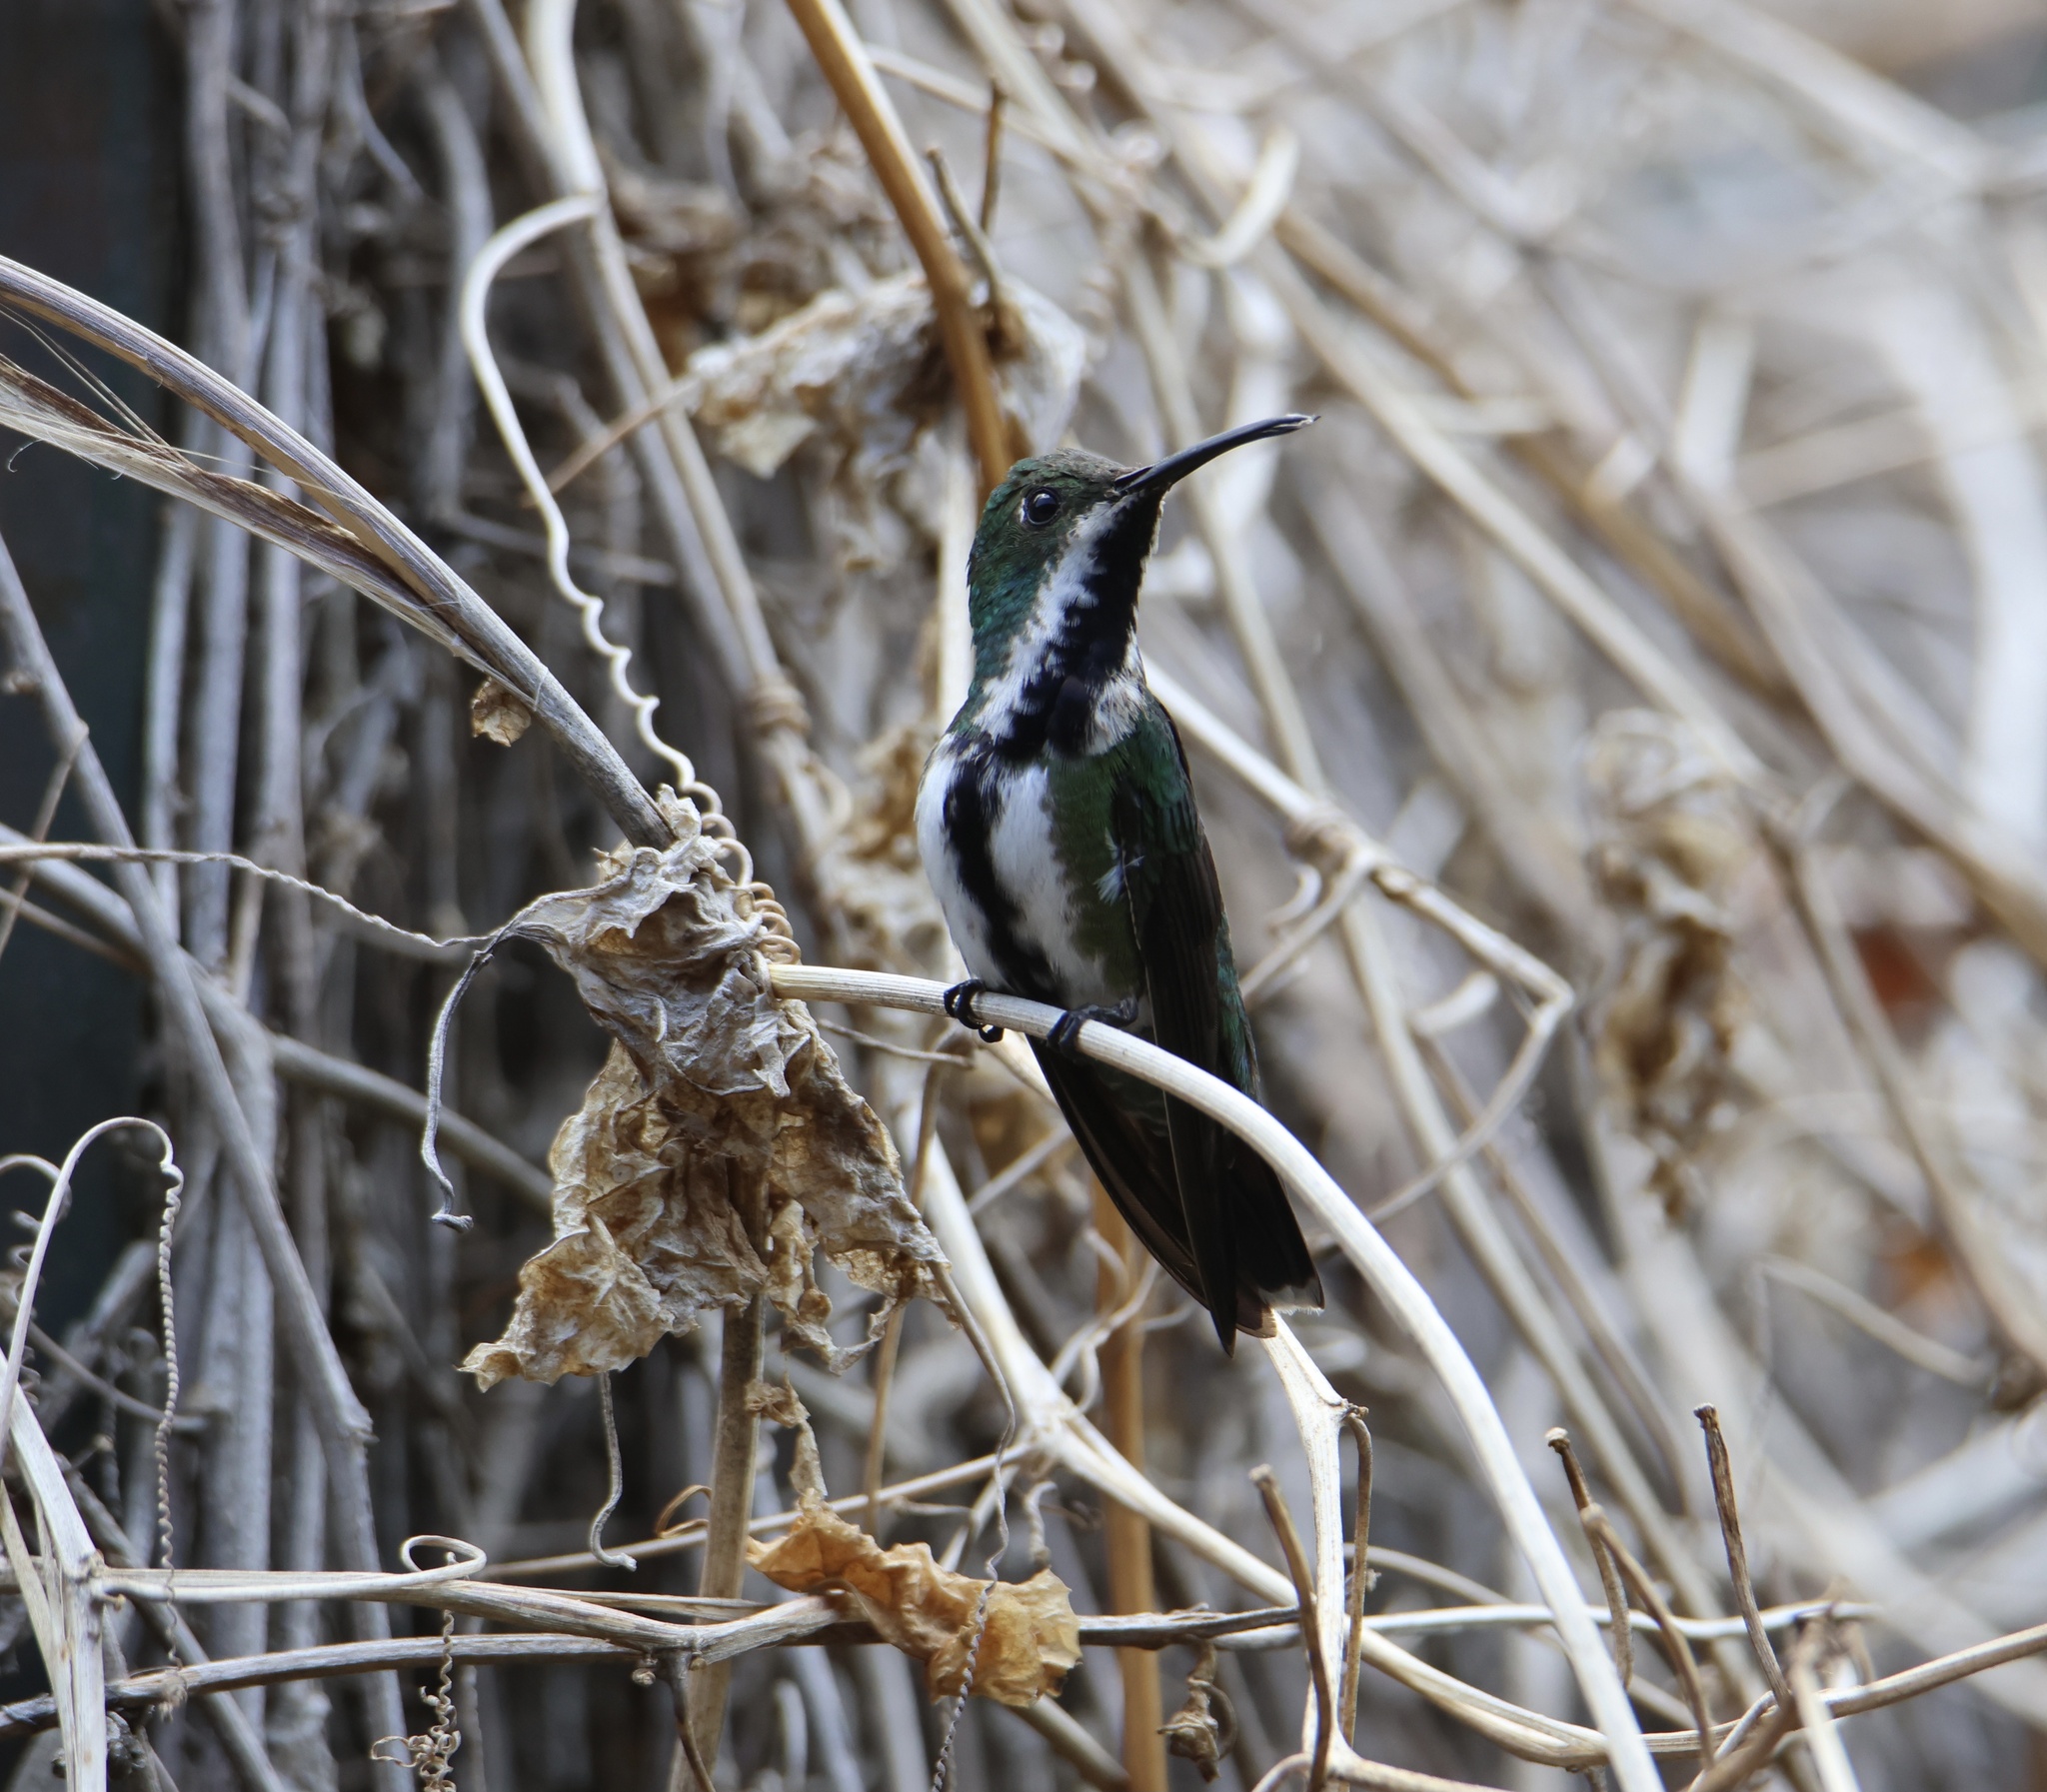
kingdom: Animalia
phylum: Chordata
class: Aves
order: Apodiformes
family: Trochilidae
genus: Anthracothorax
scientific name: Anthracothorax nigricollis
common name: Black-throated mango
